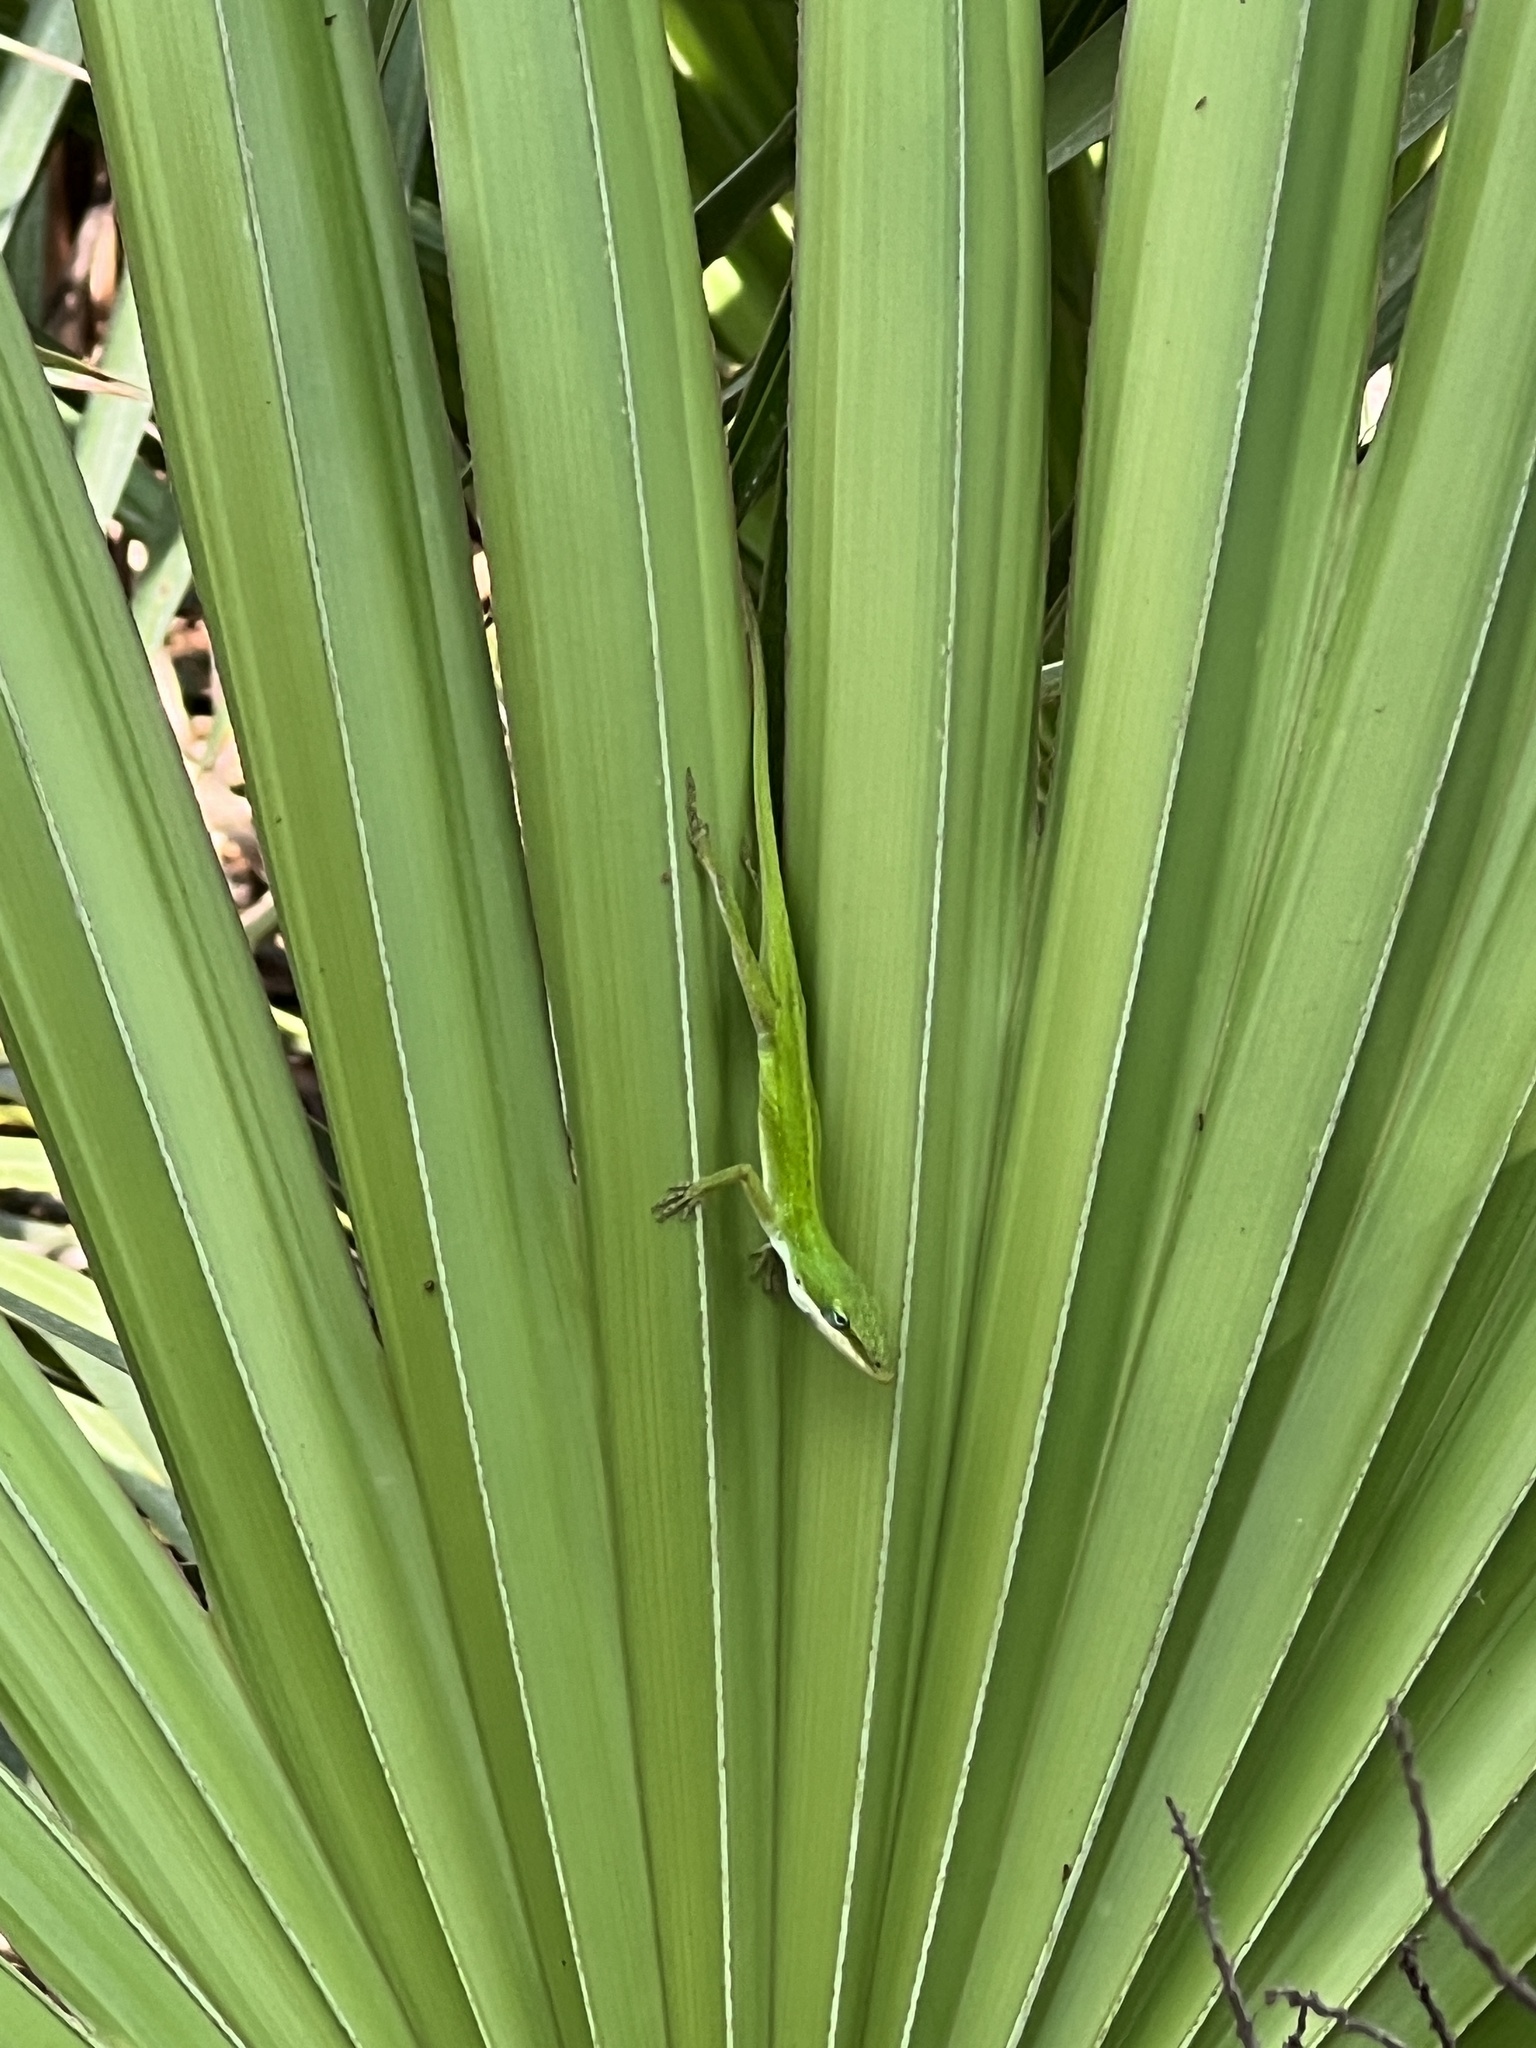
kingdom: Animalia
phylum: Chordata
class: Squamata
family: Dactyloidae
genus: Anolis
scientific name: Anolis carolinensis
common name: Green anole
